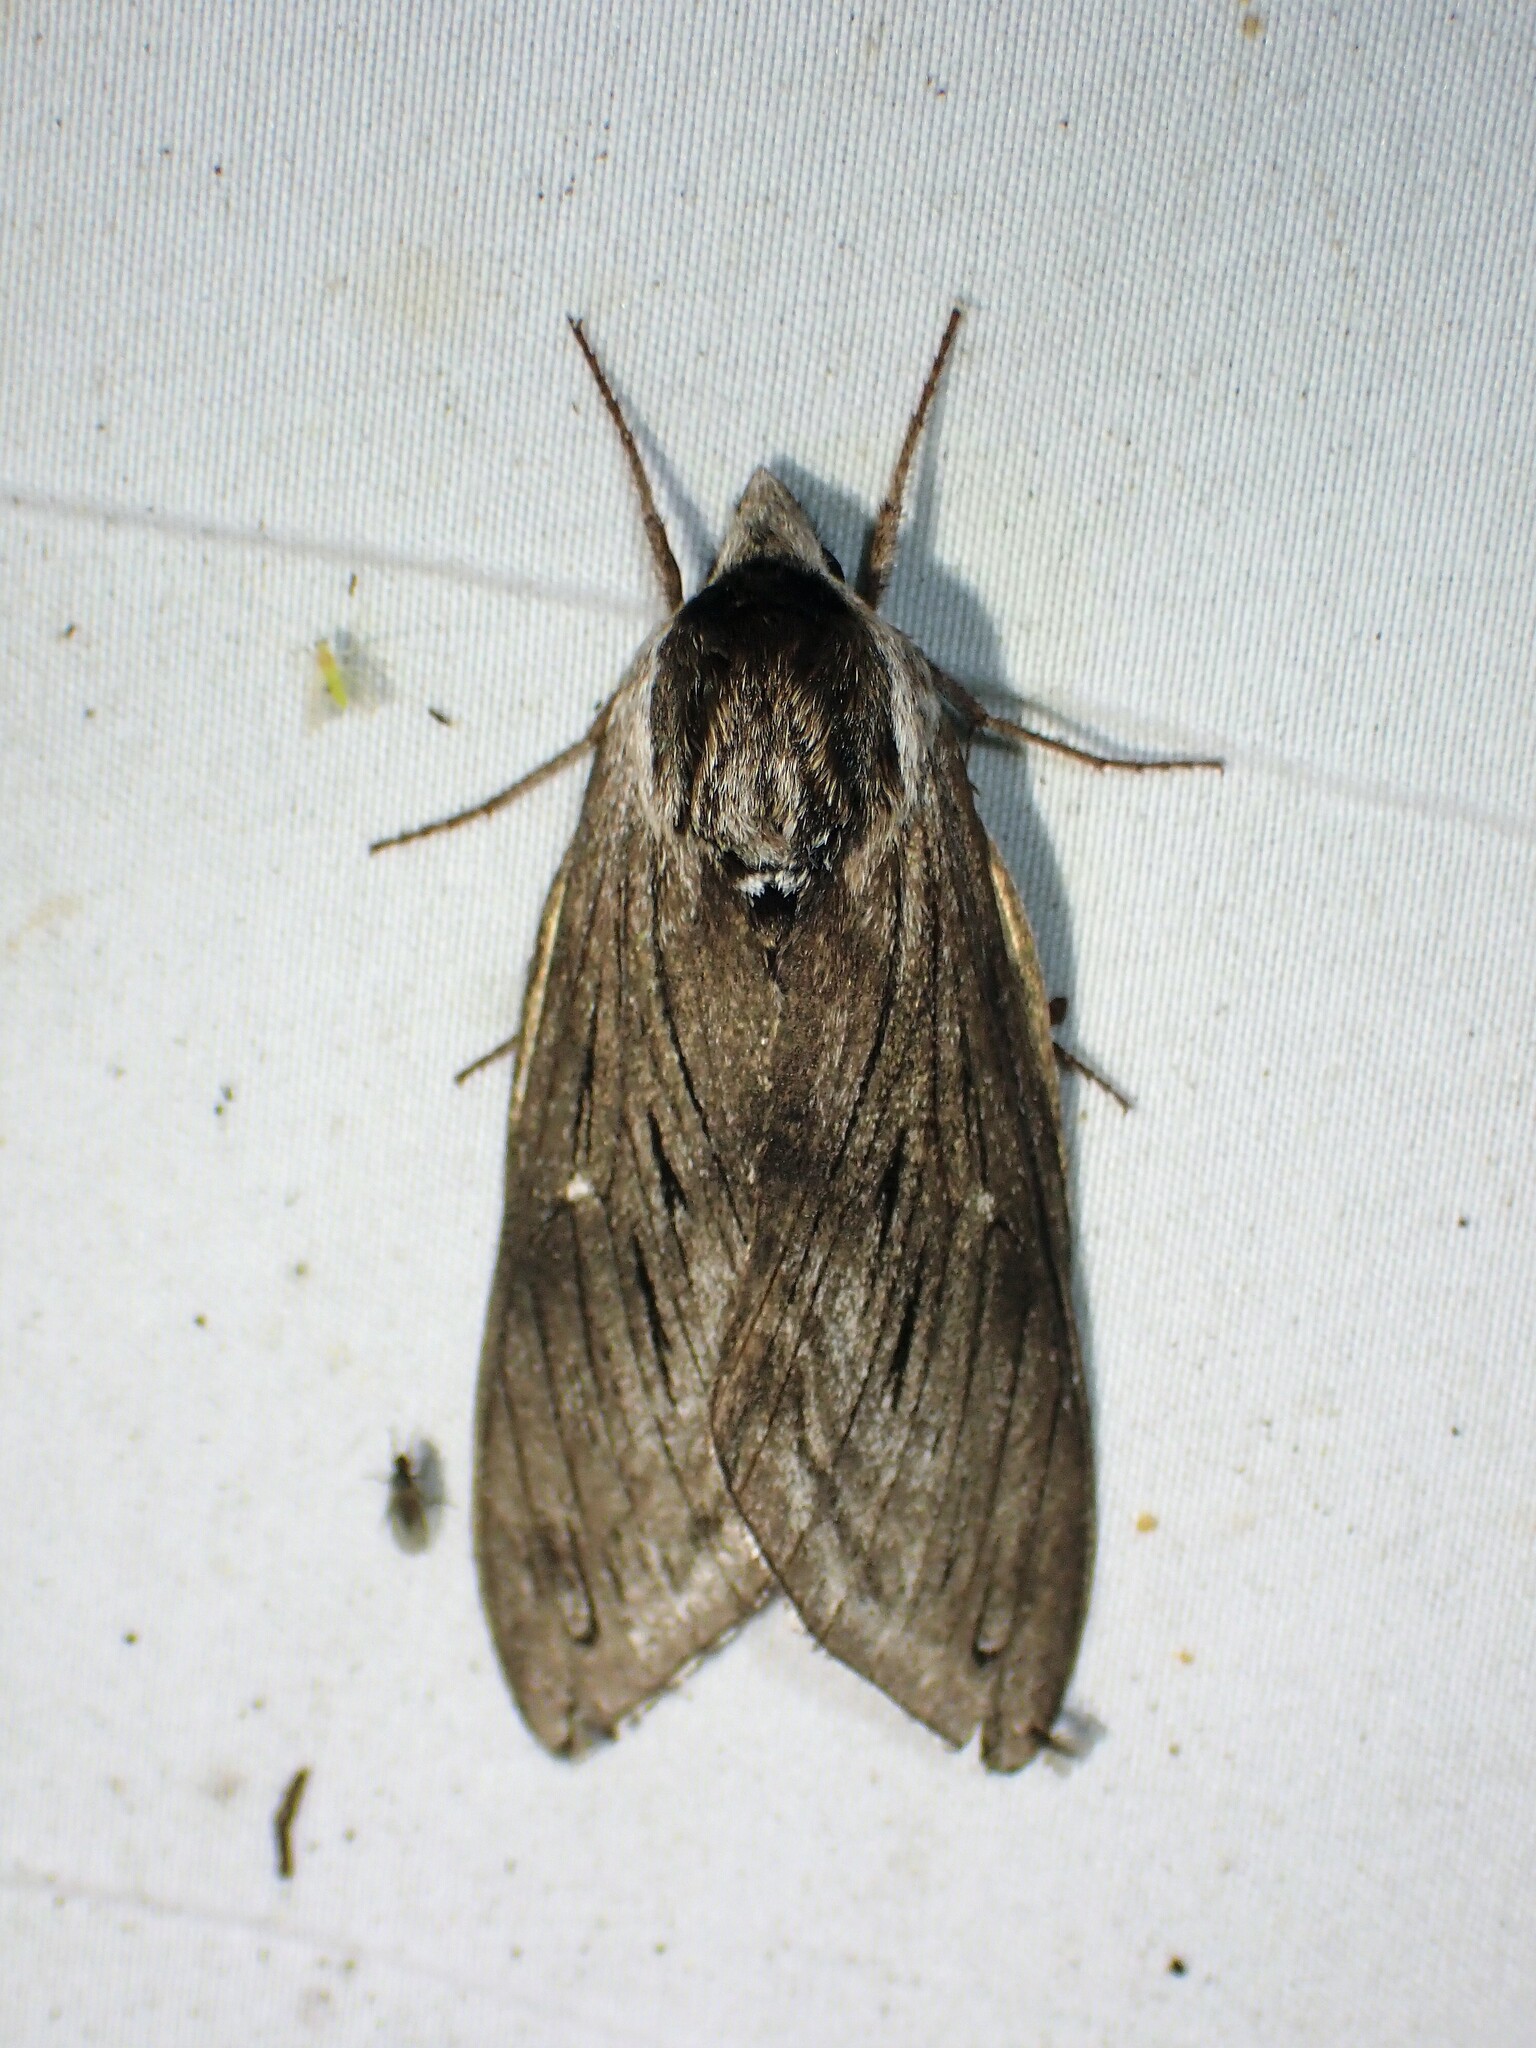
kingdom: Animalia
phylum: Arthropoda
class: Insecta
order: Lepidoptera
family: Sphingidae
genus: Sphinx
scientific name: Sphinx poecila
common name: Northern apple sphinx
